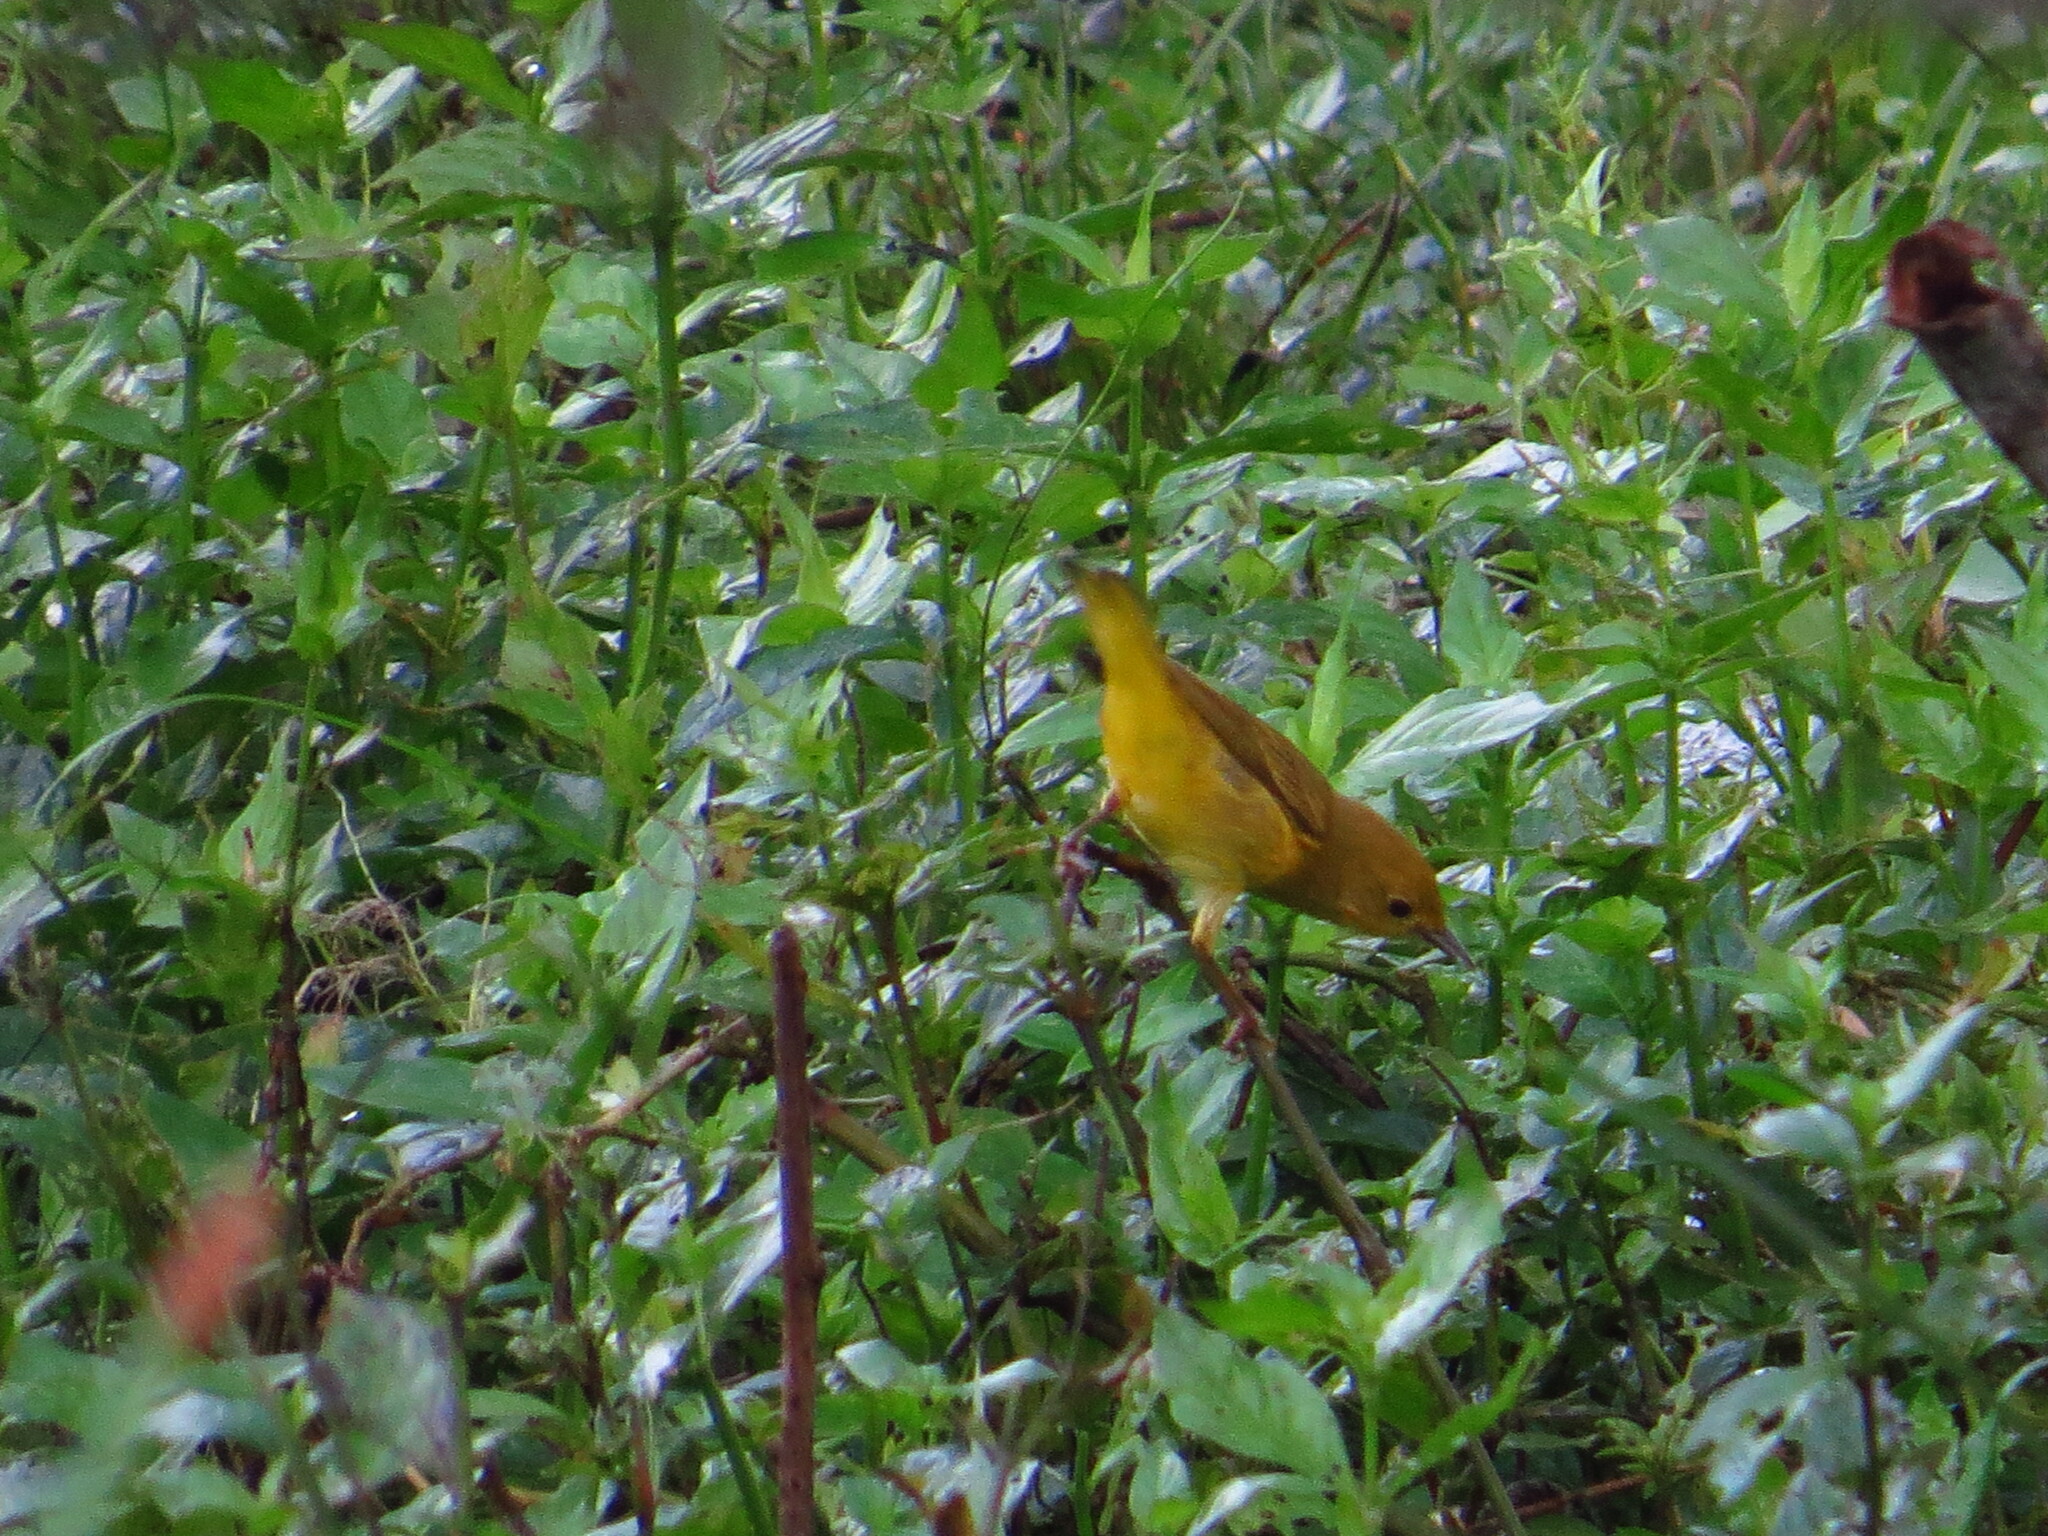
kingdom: Animalia
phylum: Chordata
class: Aves
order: Passeriformes
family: Parulidae
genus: Setophaga
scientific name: Setophaga petechia
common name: Yellow warbler
